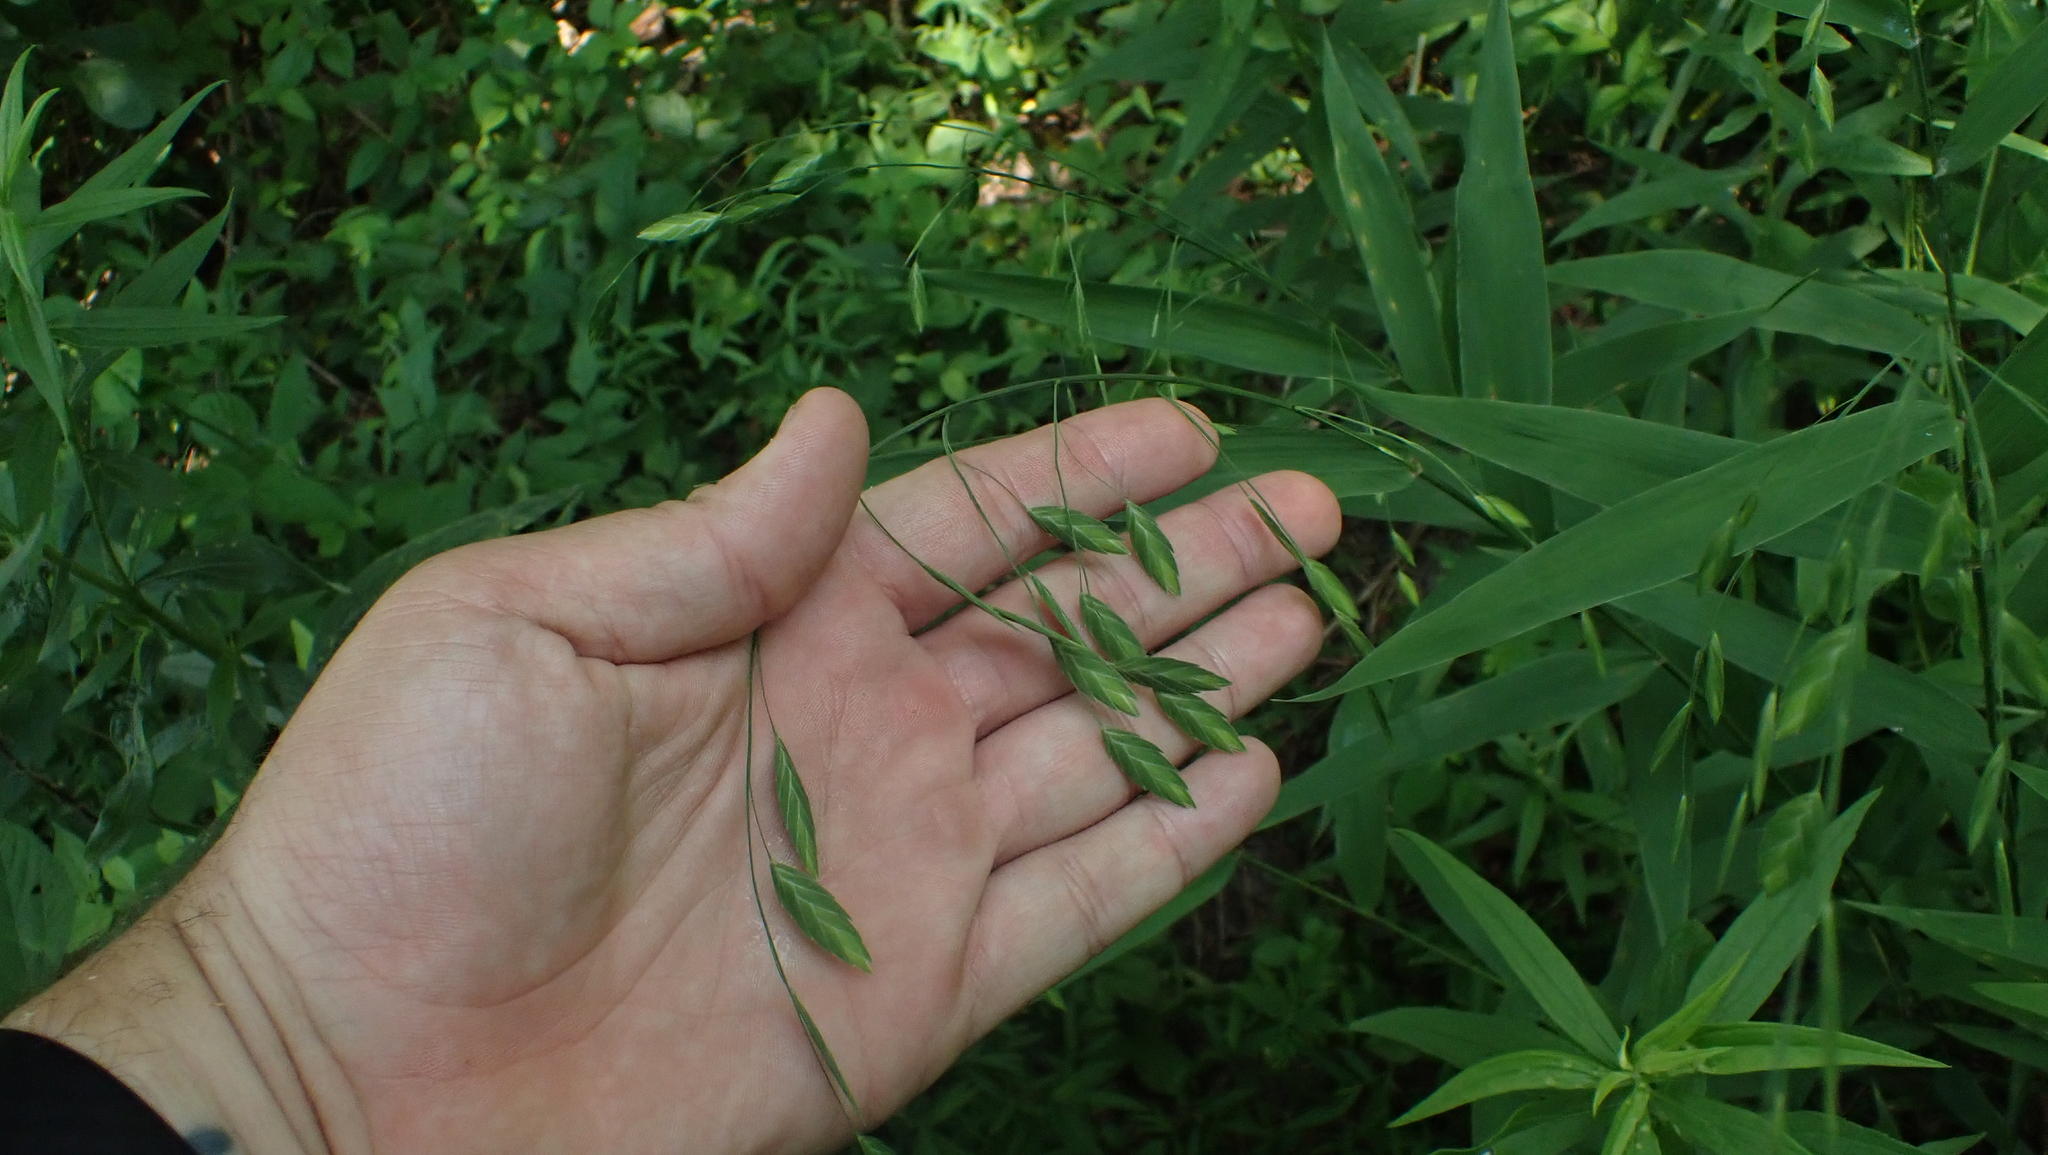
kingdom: Plantae
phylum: Tracheophyta
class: Liliopsida
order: Poales
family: Poaceae
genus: Chasmanthium
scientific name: Chasmanthium latifolium
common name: Broad-leaved chasmanthium
